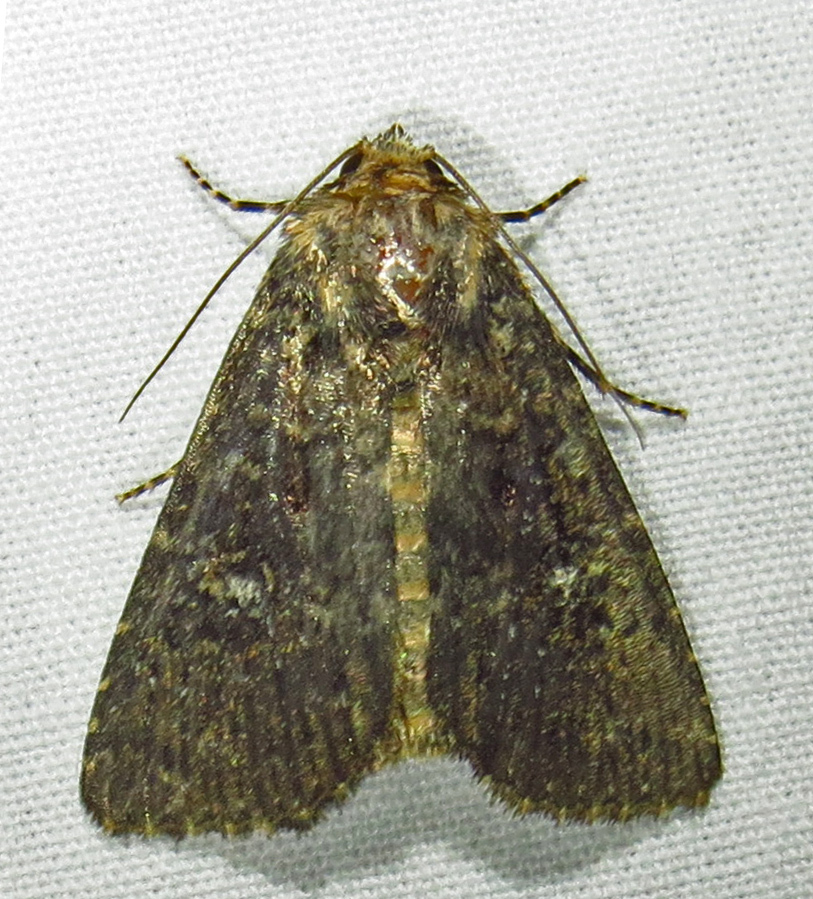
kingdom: Animalia
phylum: Arthropoda
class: Insecta
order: Lepidoptera
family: Noctuidae
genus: Condica
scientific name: Condica vecors
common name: Dusky groundling
